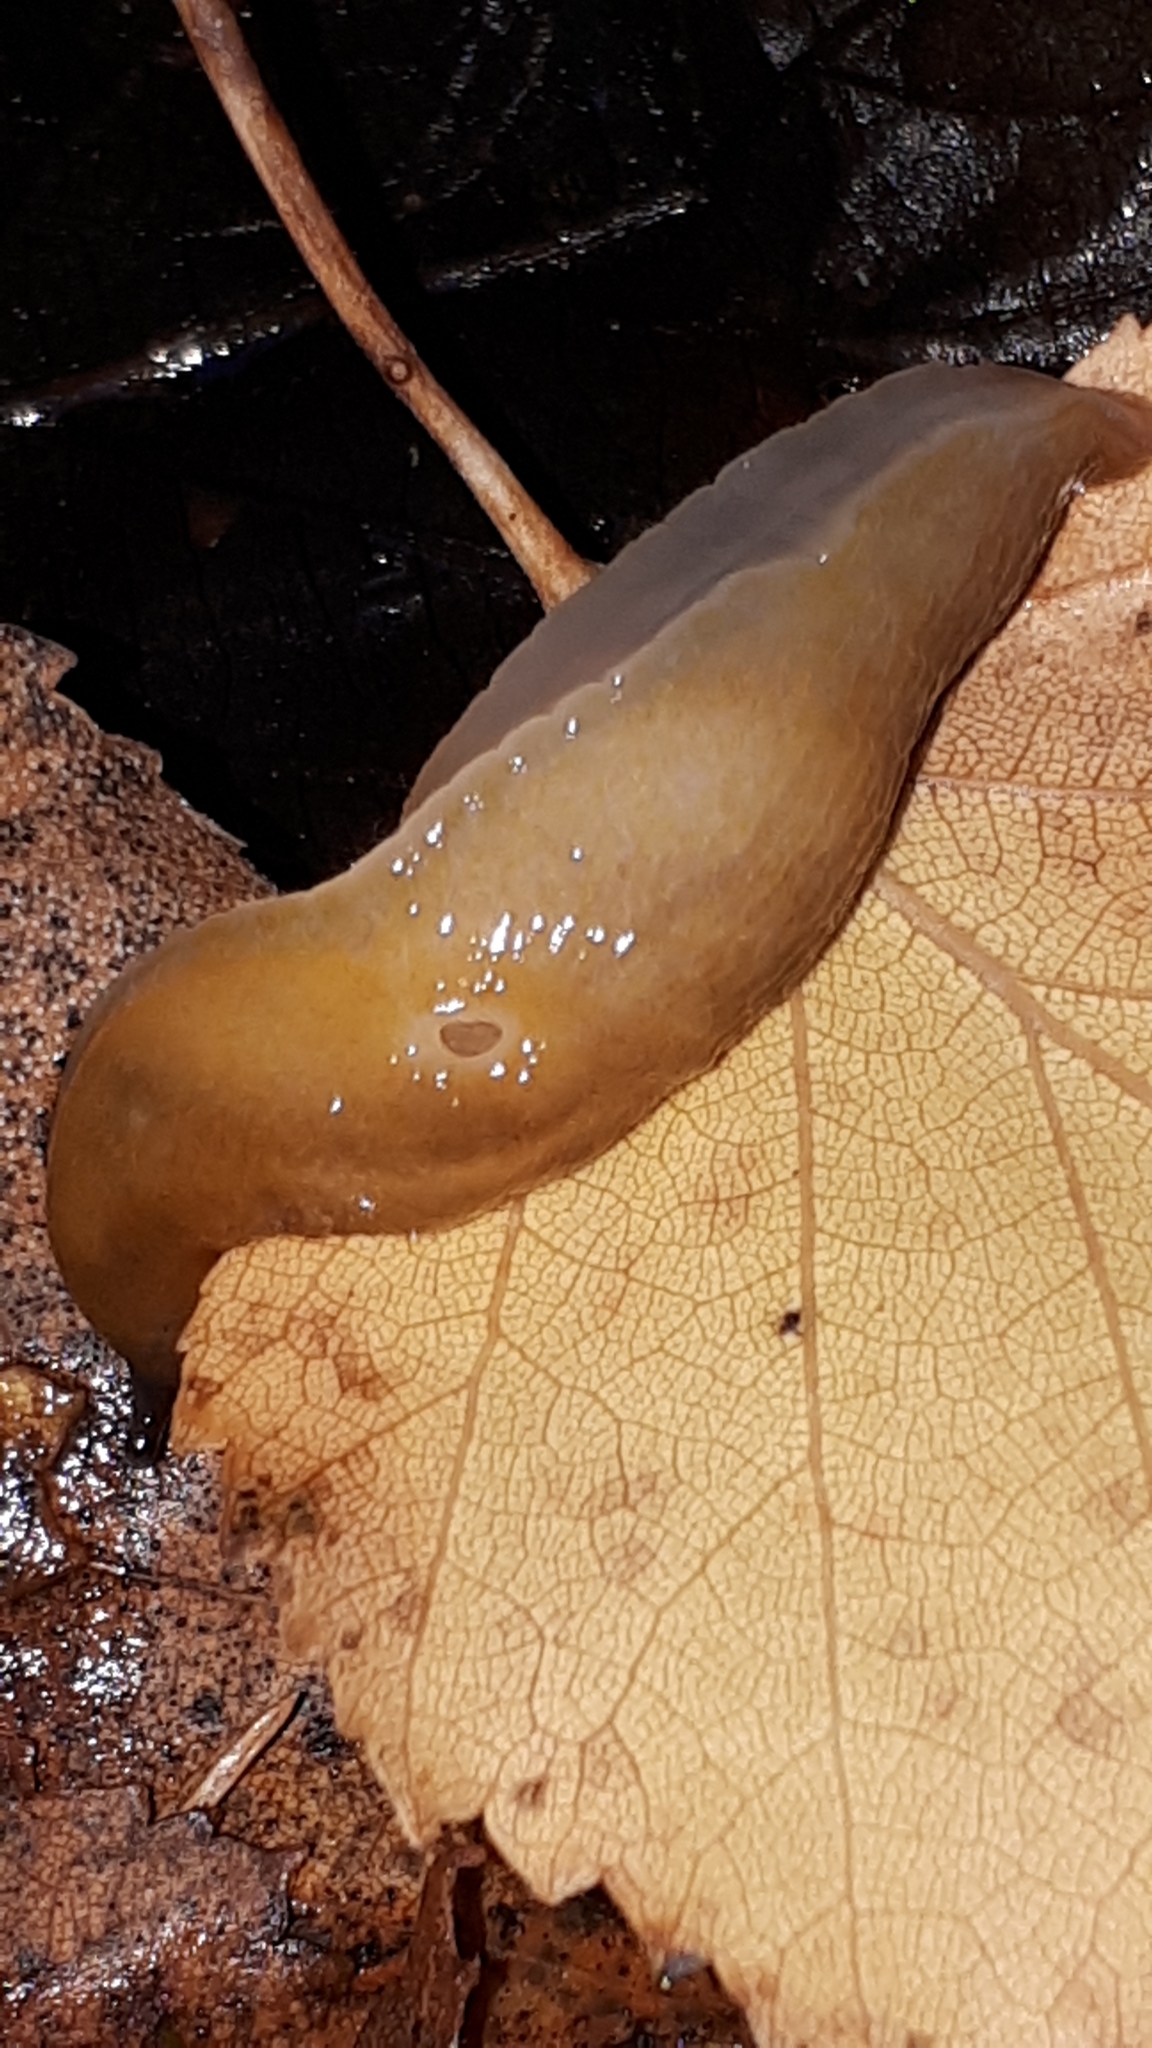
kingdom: Animalia
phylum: Mollusca
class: Gastropoda
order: Stylommatophora
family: Limacidae
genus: Malacolimax
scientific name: Malacolimax tenellus
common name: Lemon slug
